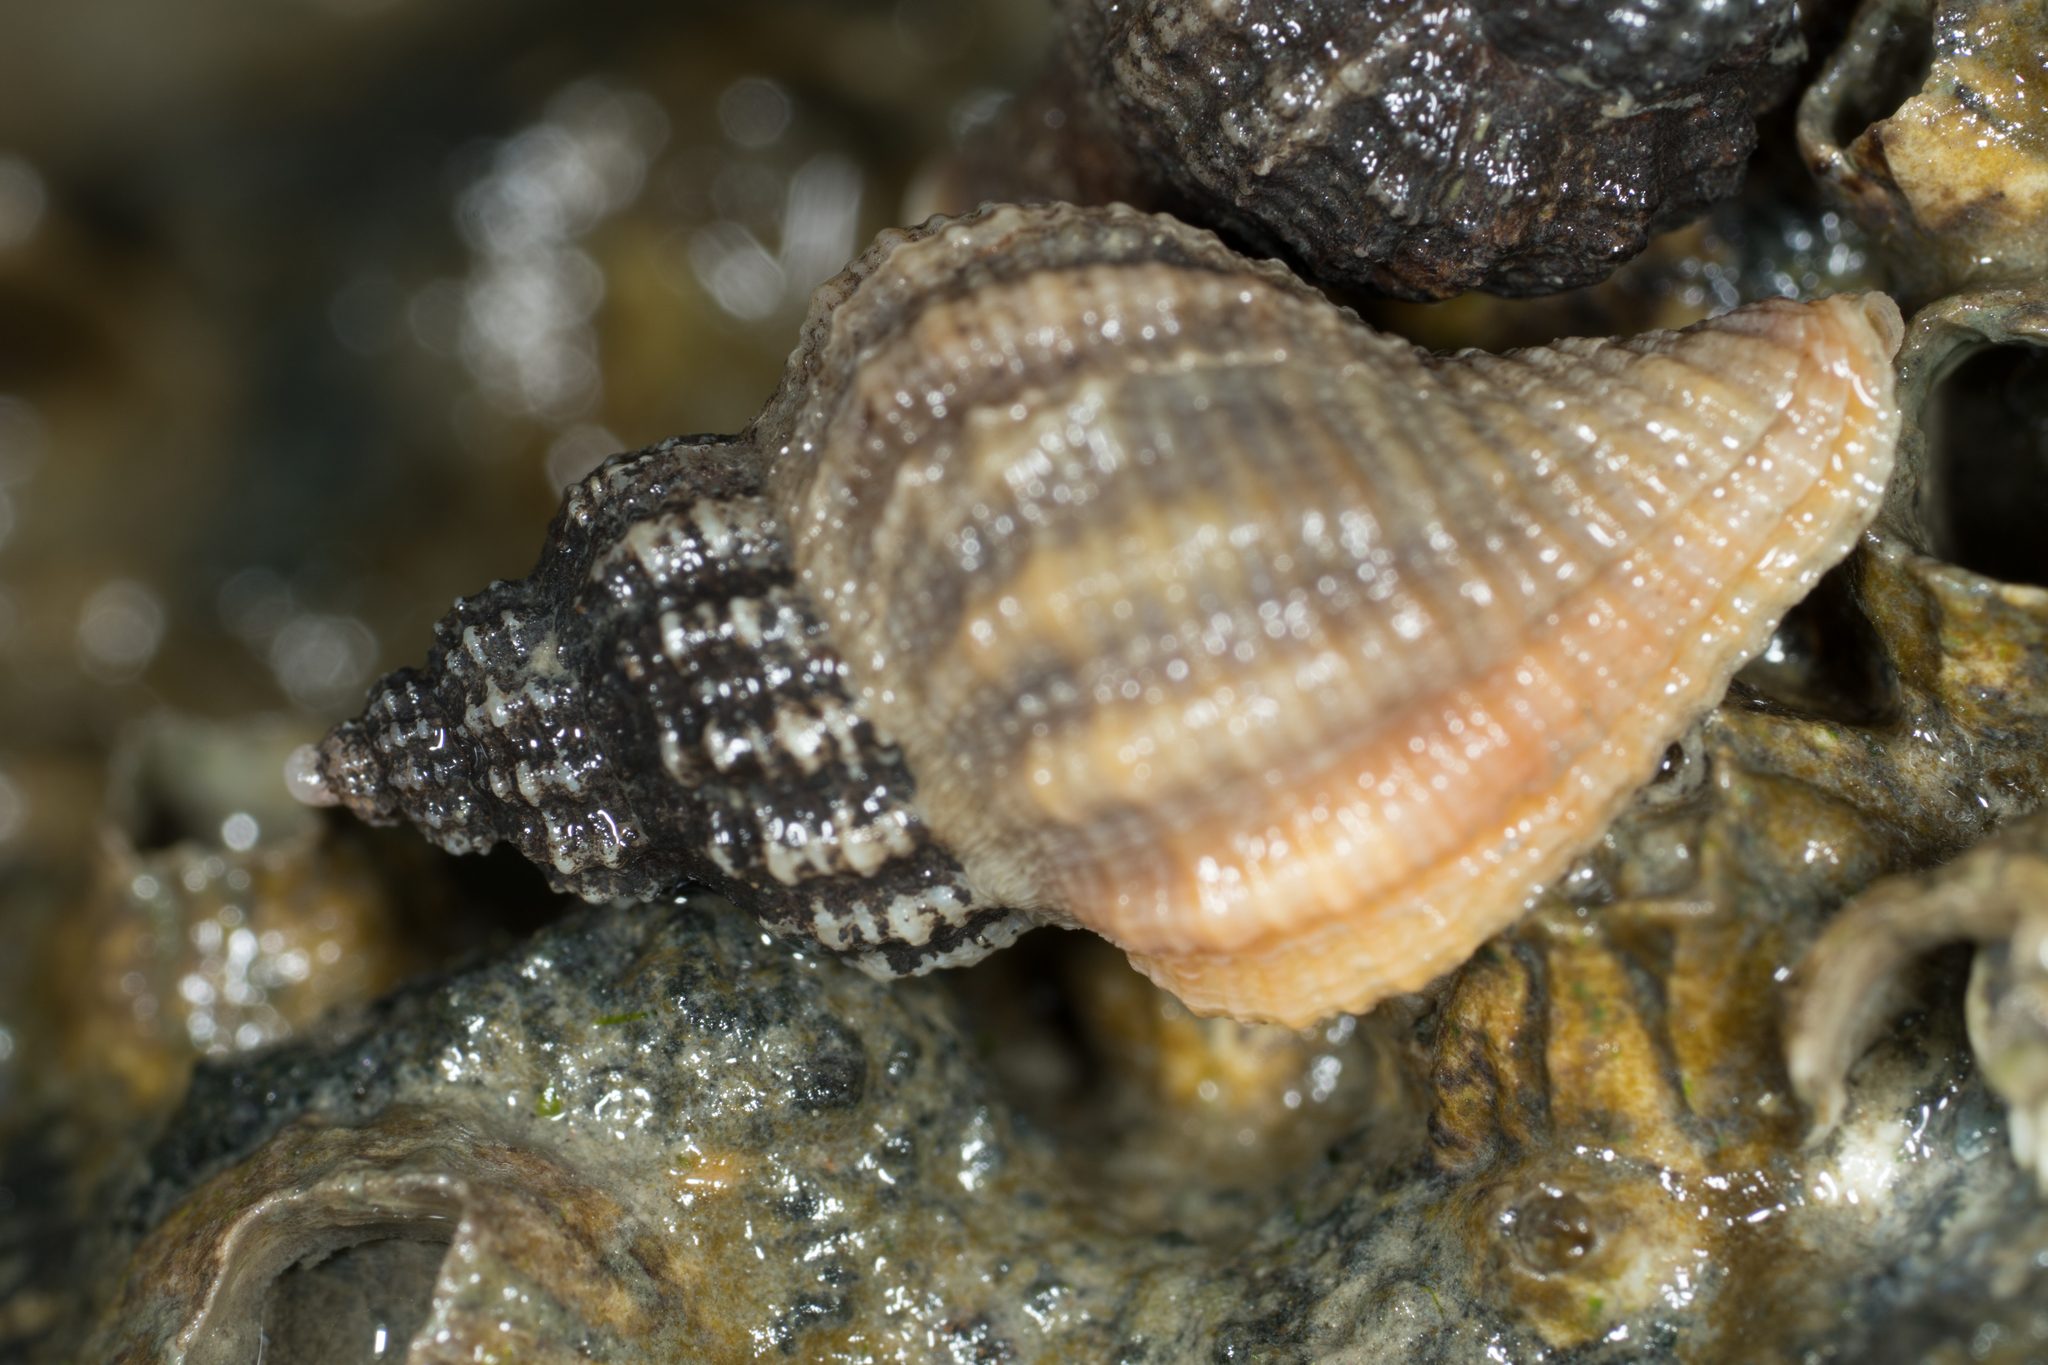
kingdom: Animalia
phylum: Mollusca
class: Gastropoda
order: Neogastropoda
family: Muricidae
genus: Urosalpinx
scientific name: Urosalpinx cinerea
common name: American sting winkle
